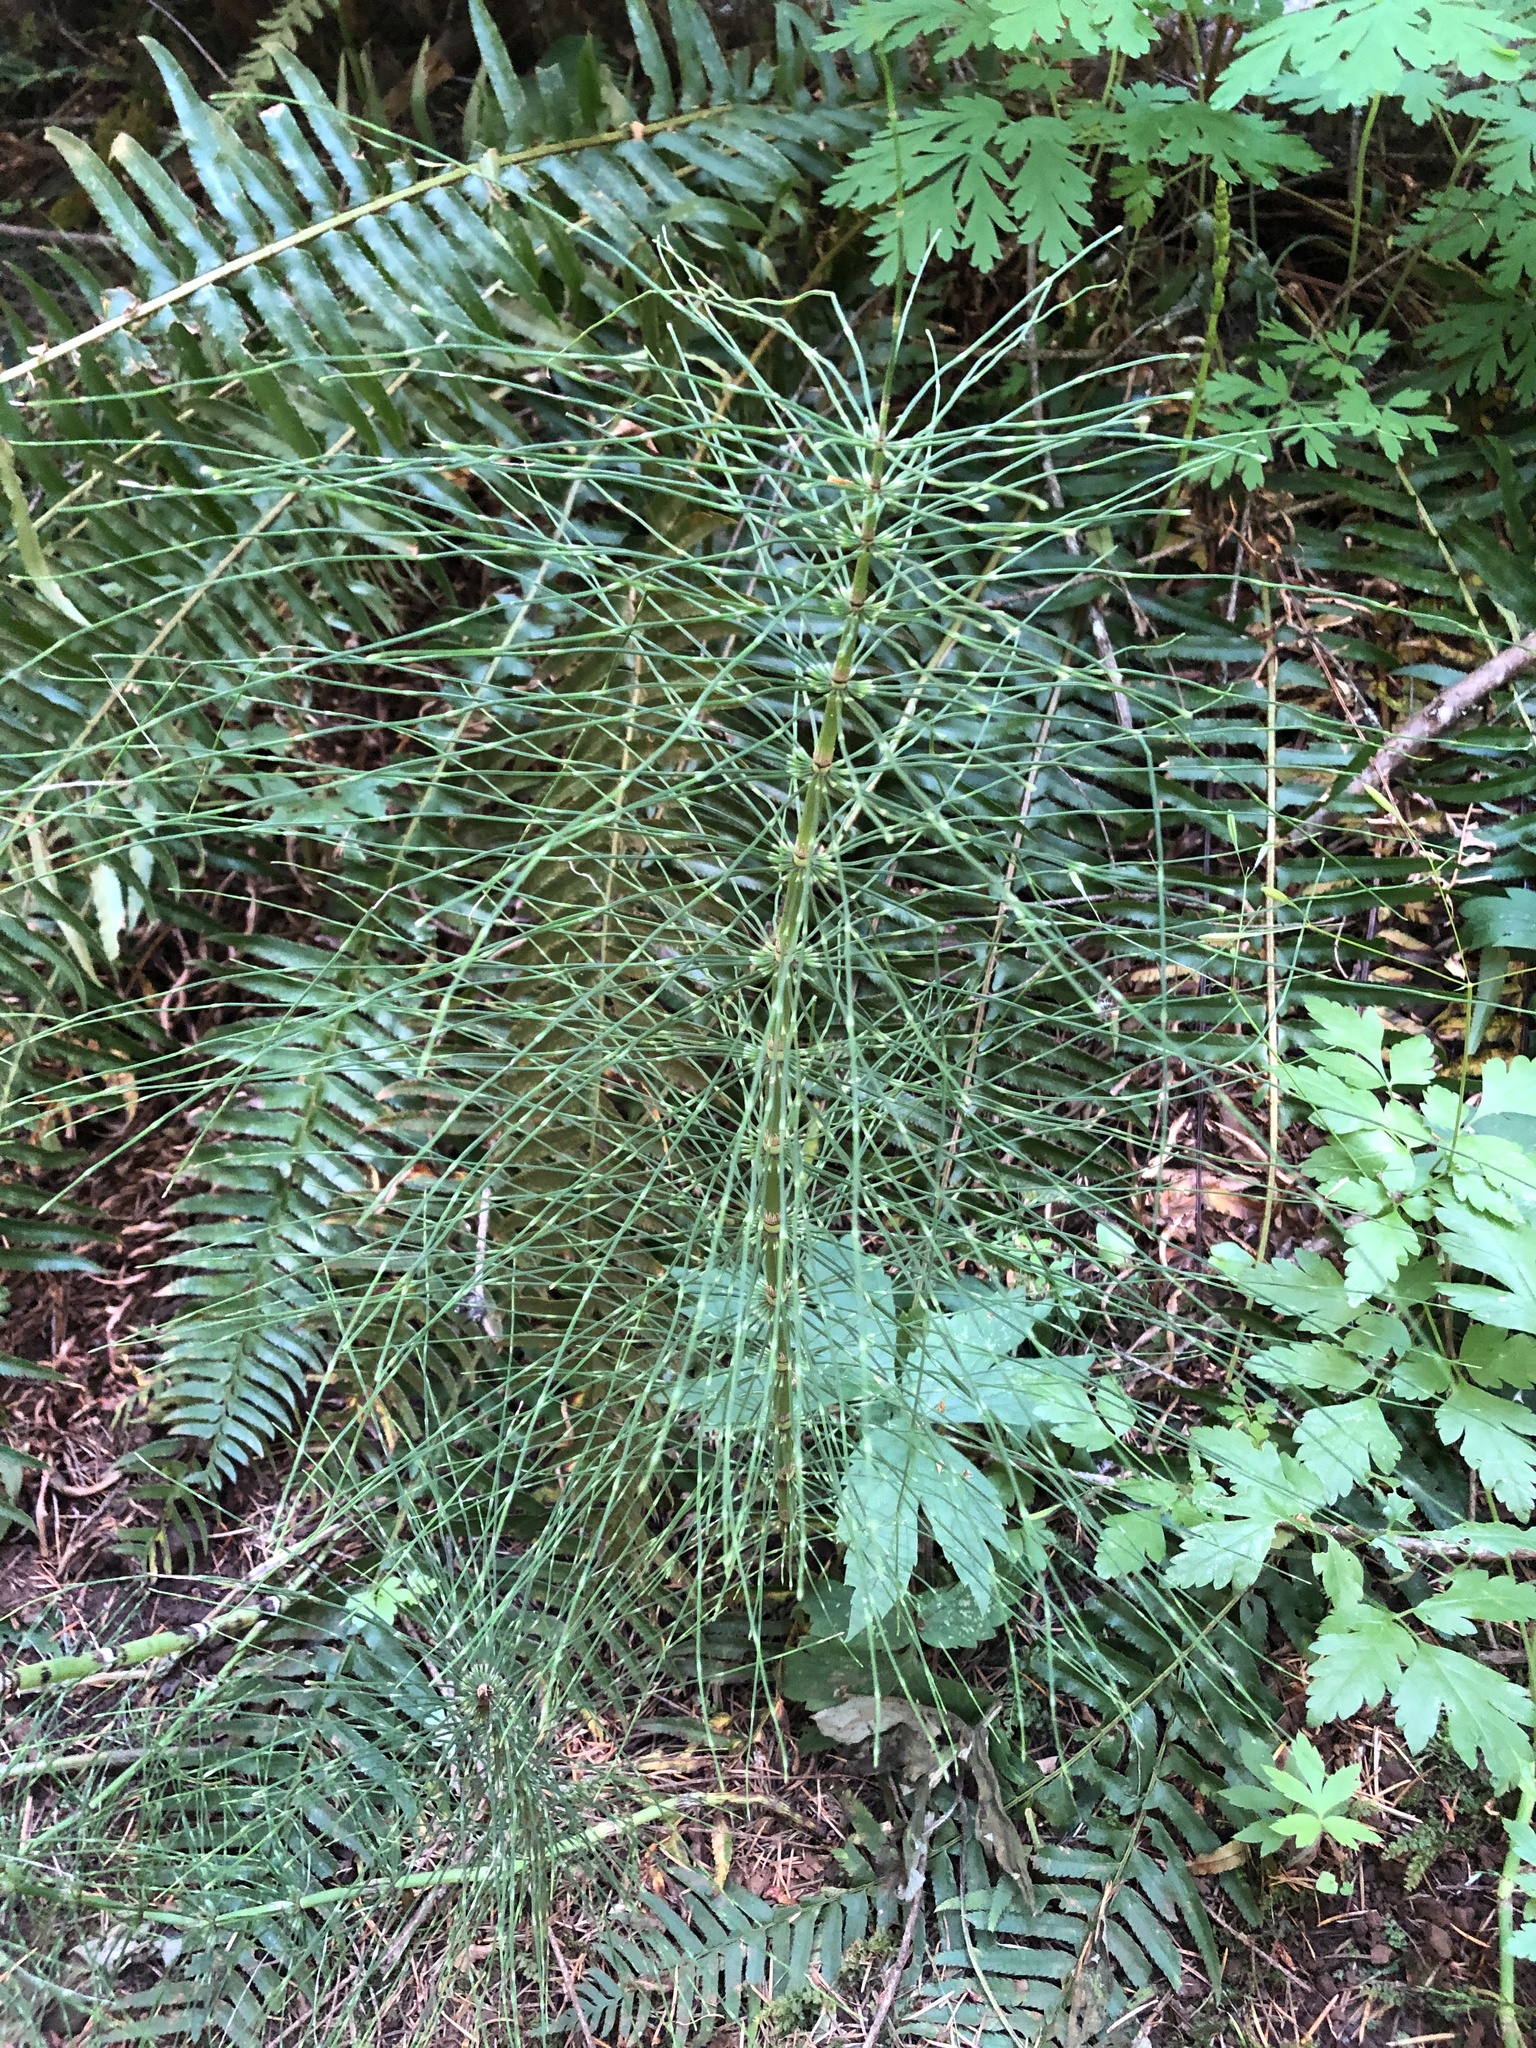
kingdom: Plantae
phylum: Tracheophyta
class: Polypodiopsida
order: Equisetales
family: Equisetaceae
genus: Equisetum
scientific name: Equisetum telmateia
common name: Great horsetail
